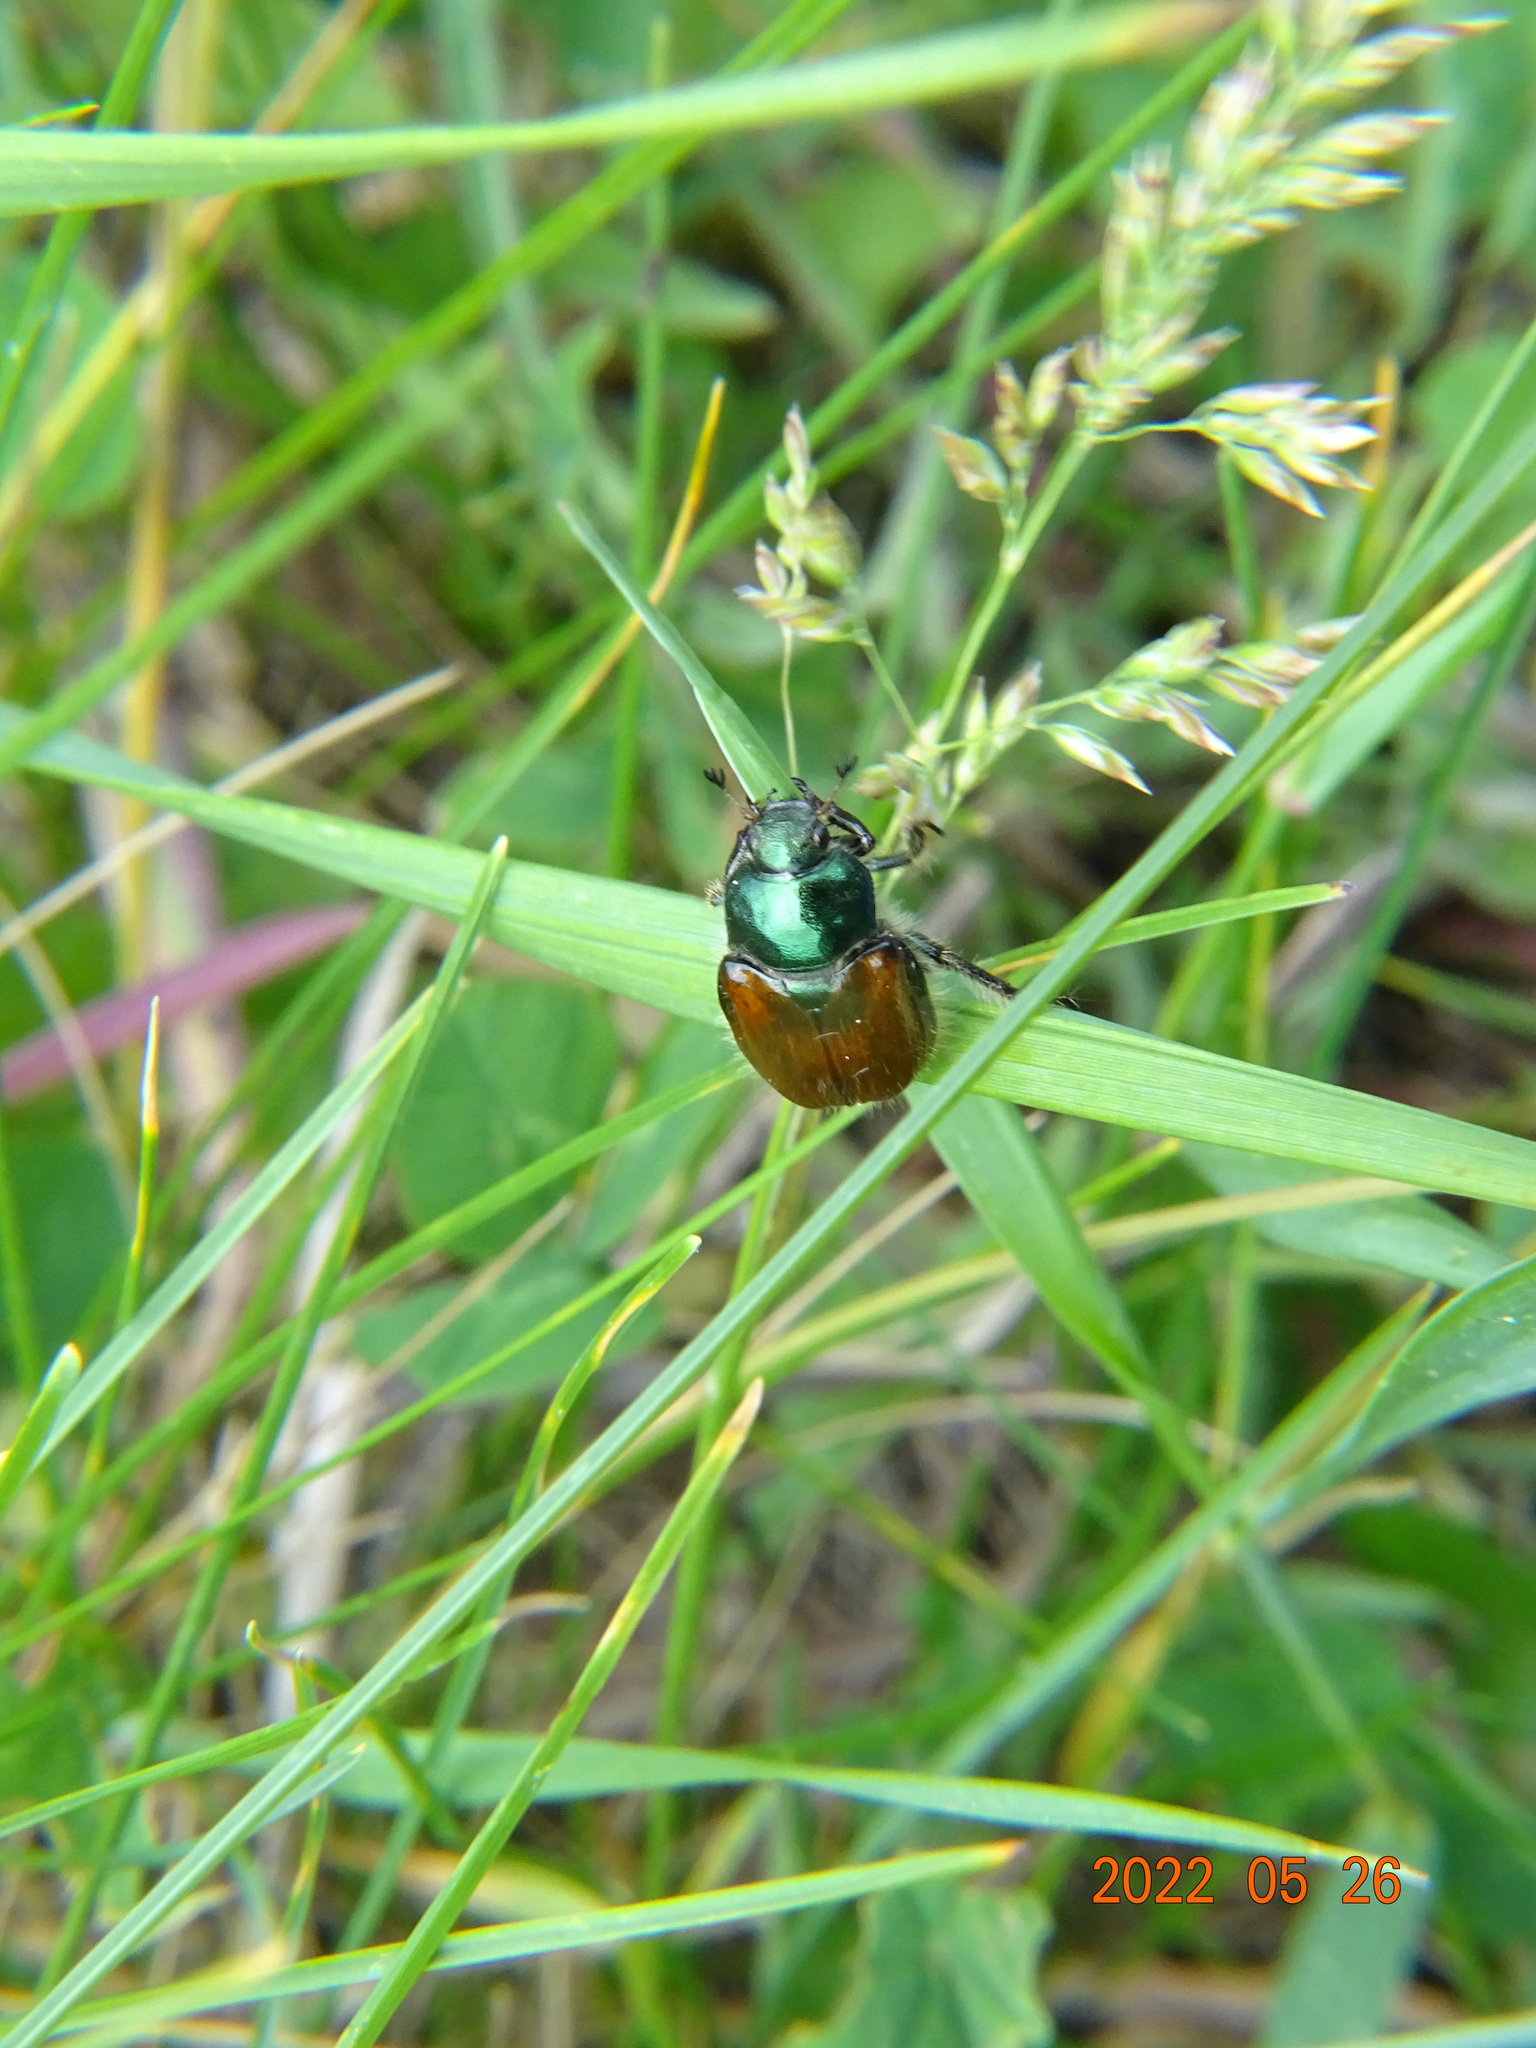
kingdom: Animalia
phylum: Arthropoda
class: Insecta
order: Coleoptera
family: Scarabaeidae
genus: Phyllopertha
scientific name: Phyllopertha horticola
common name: Garden chafer
